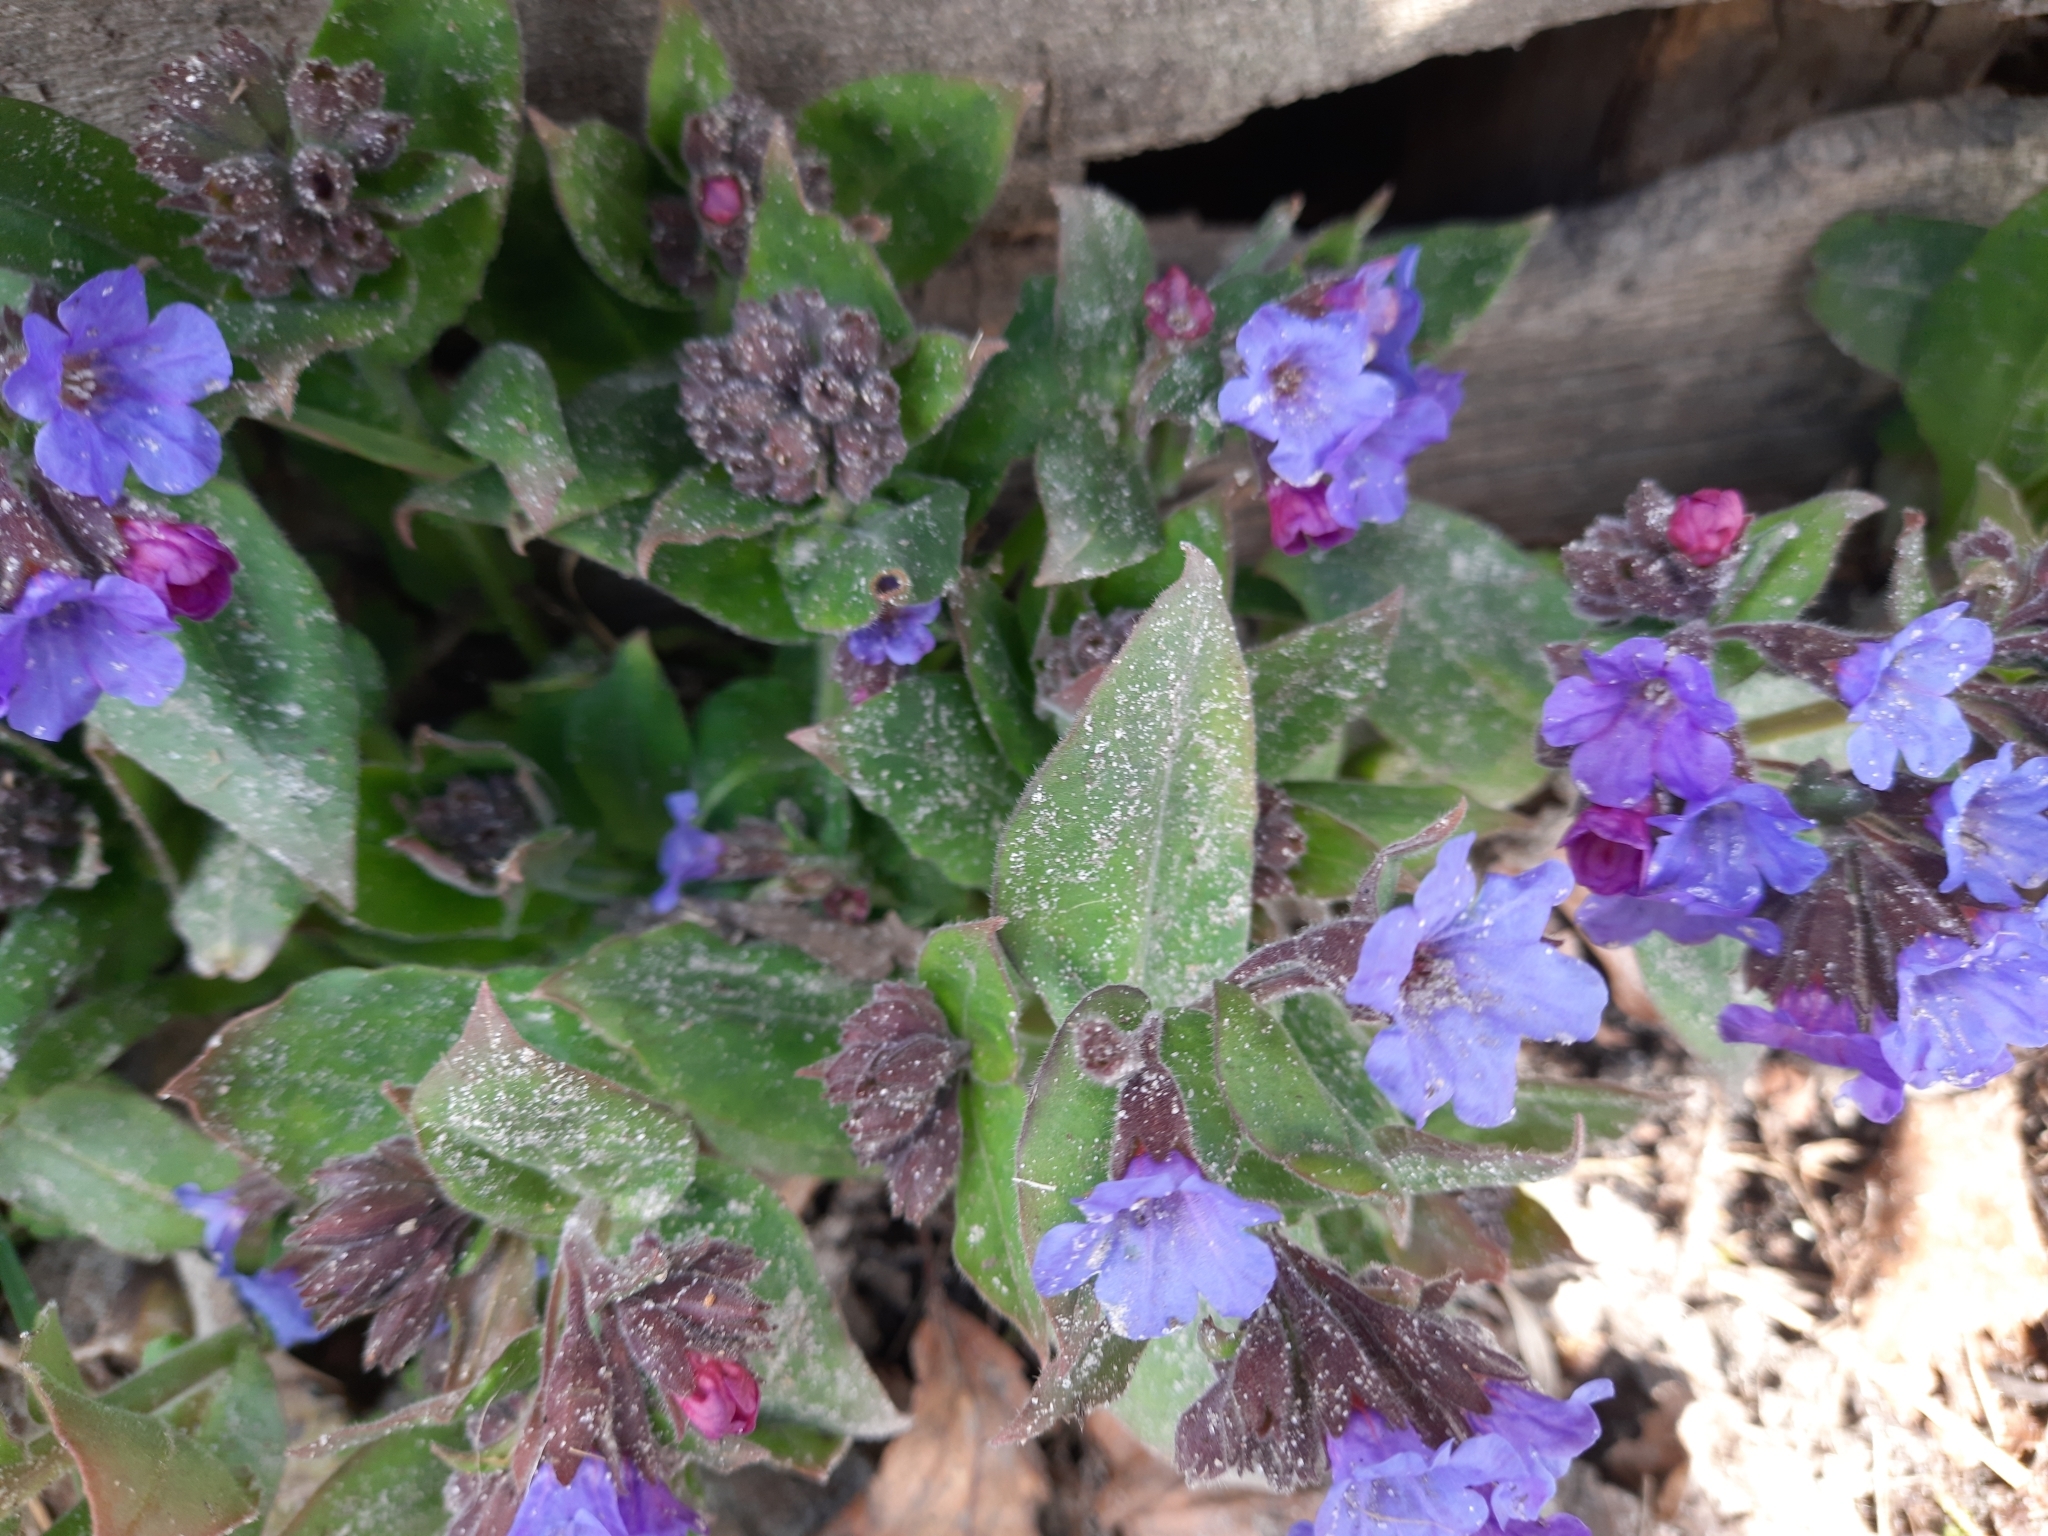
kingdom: Plantae
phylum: Tracheophyta
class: Magnoliopsida
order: Boraginales
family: Boraginaceae
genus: Pulmonaria
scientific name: Pulmonaria mollis
